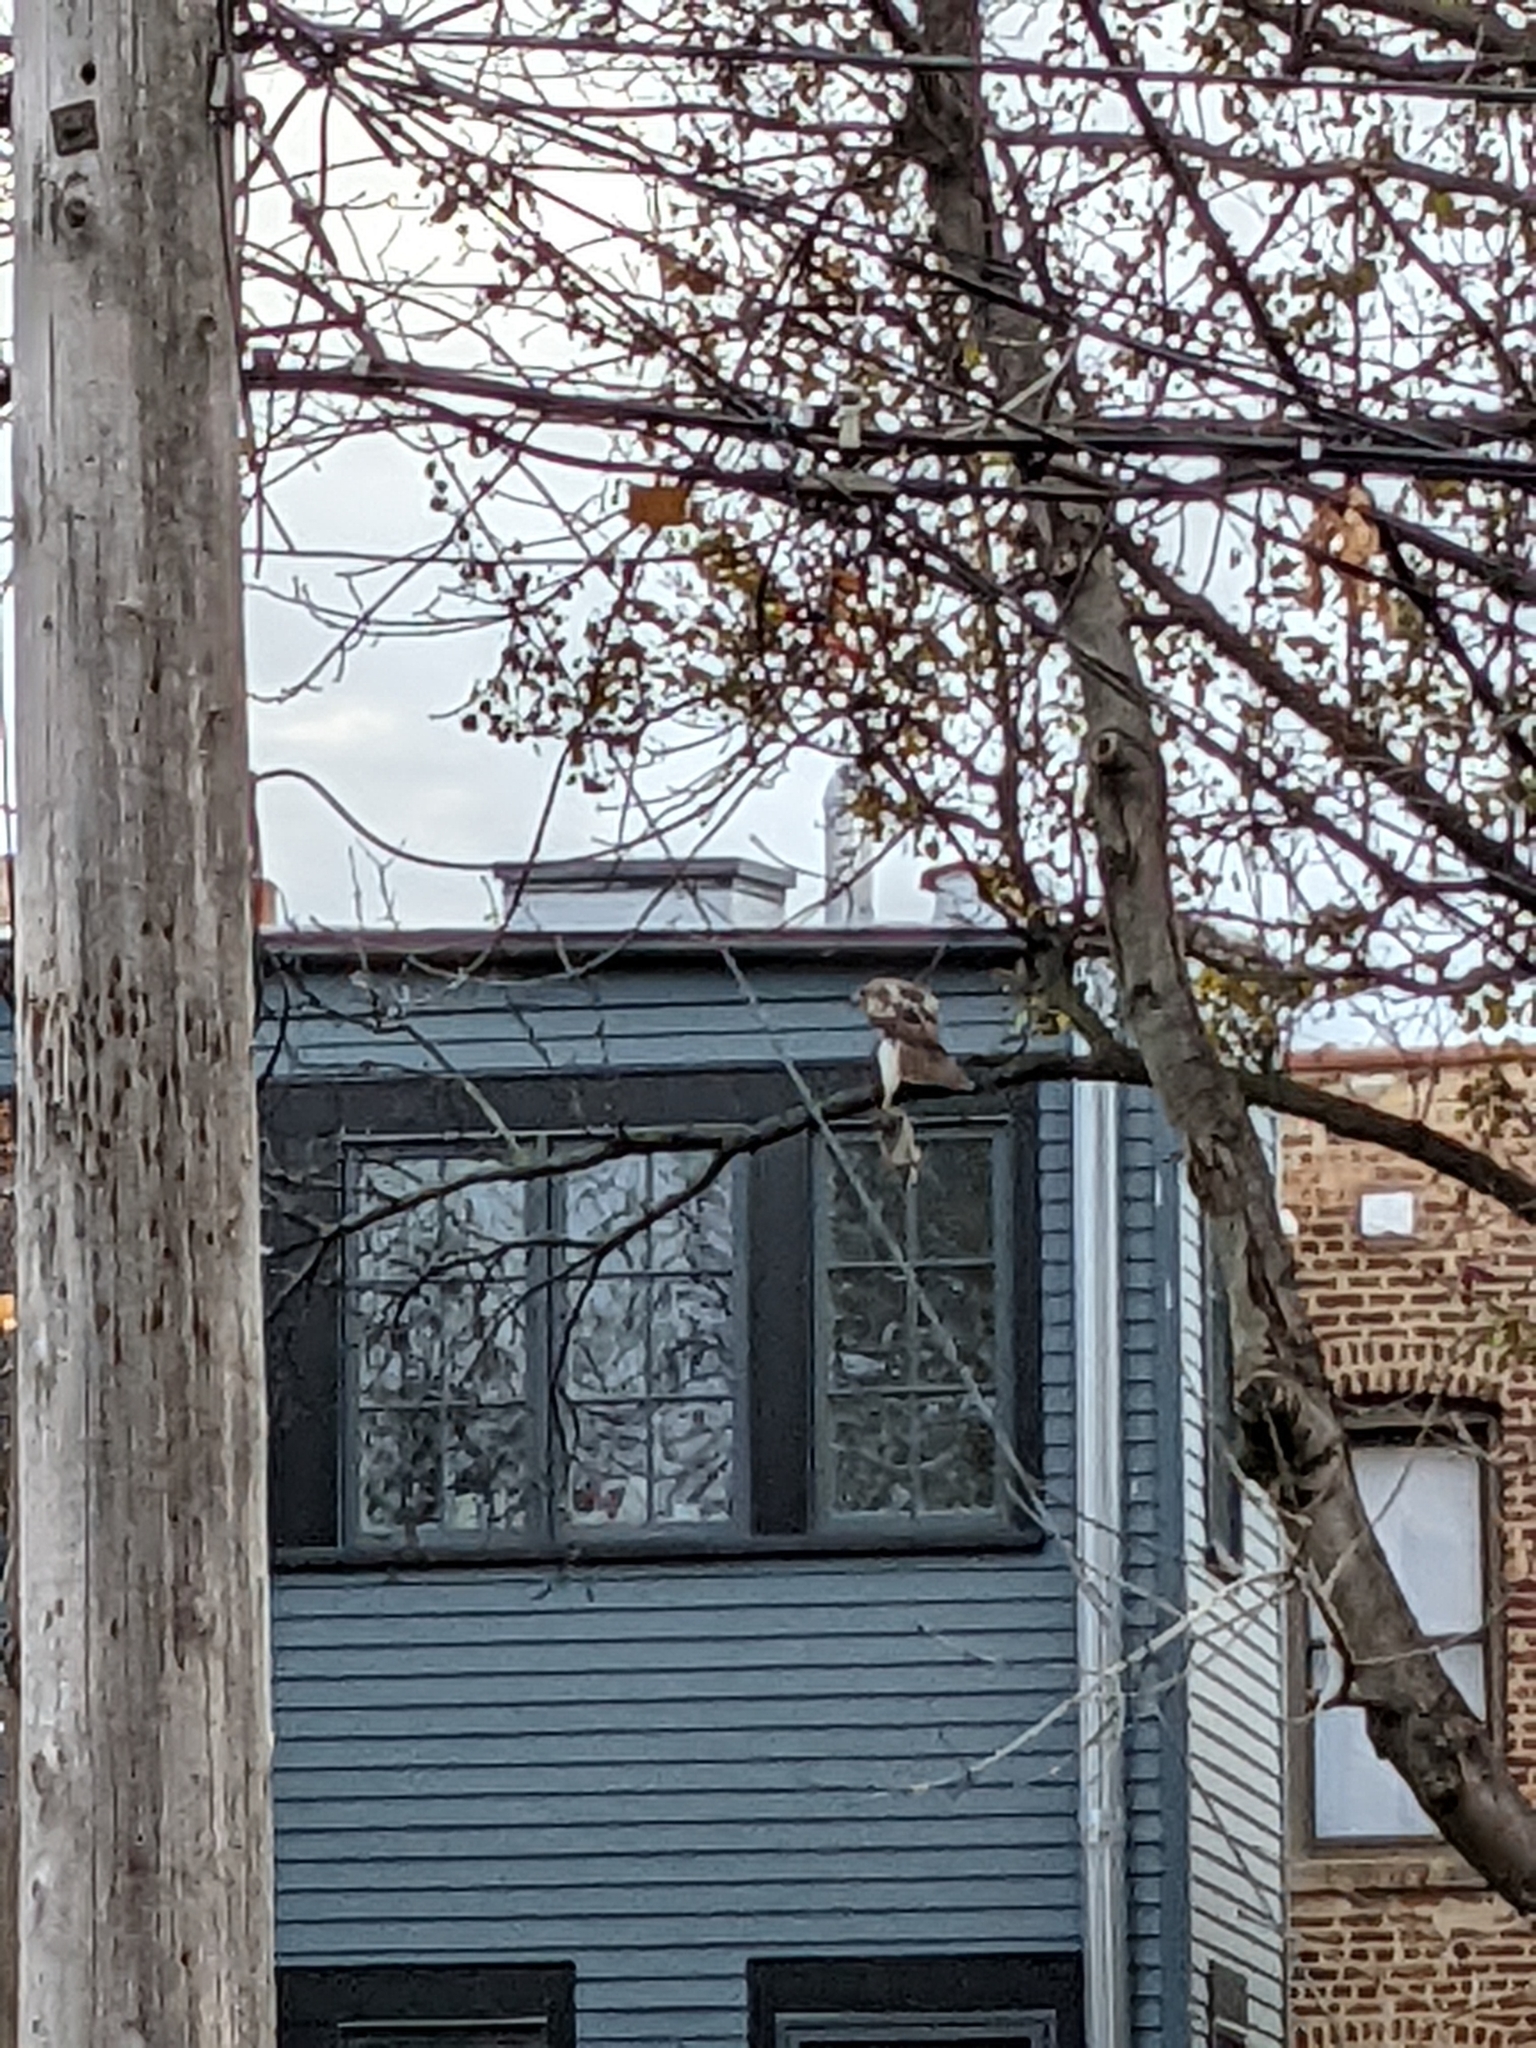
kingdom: Animalia
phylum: Chordata
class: Aves
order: Accipitriformes
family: Accipitridae
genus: Buteo
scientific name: Buteo jamaicensis
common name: Red-tailed hawk
